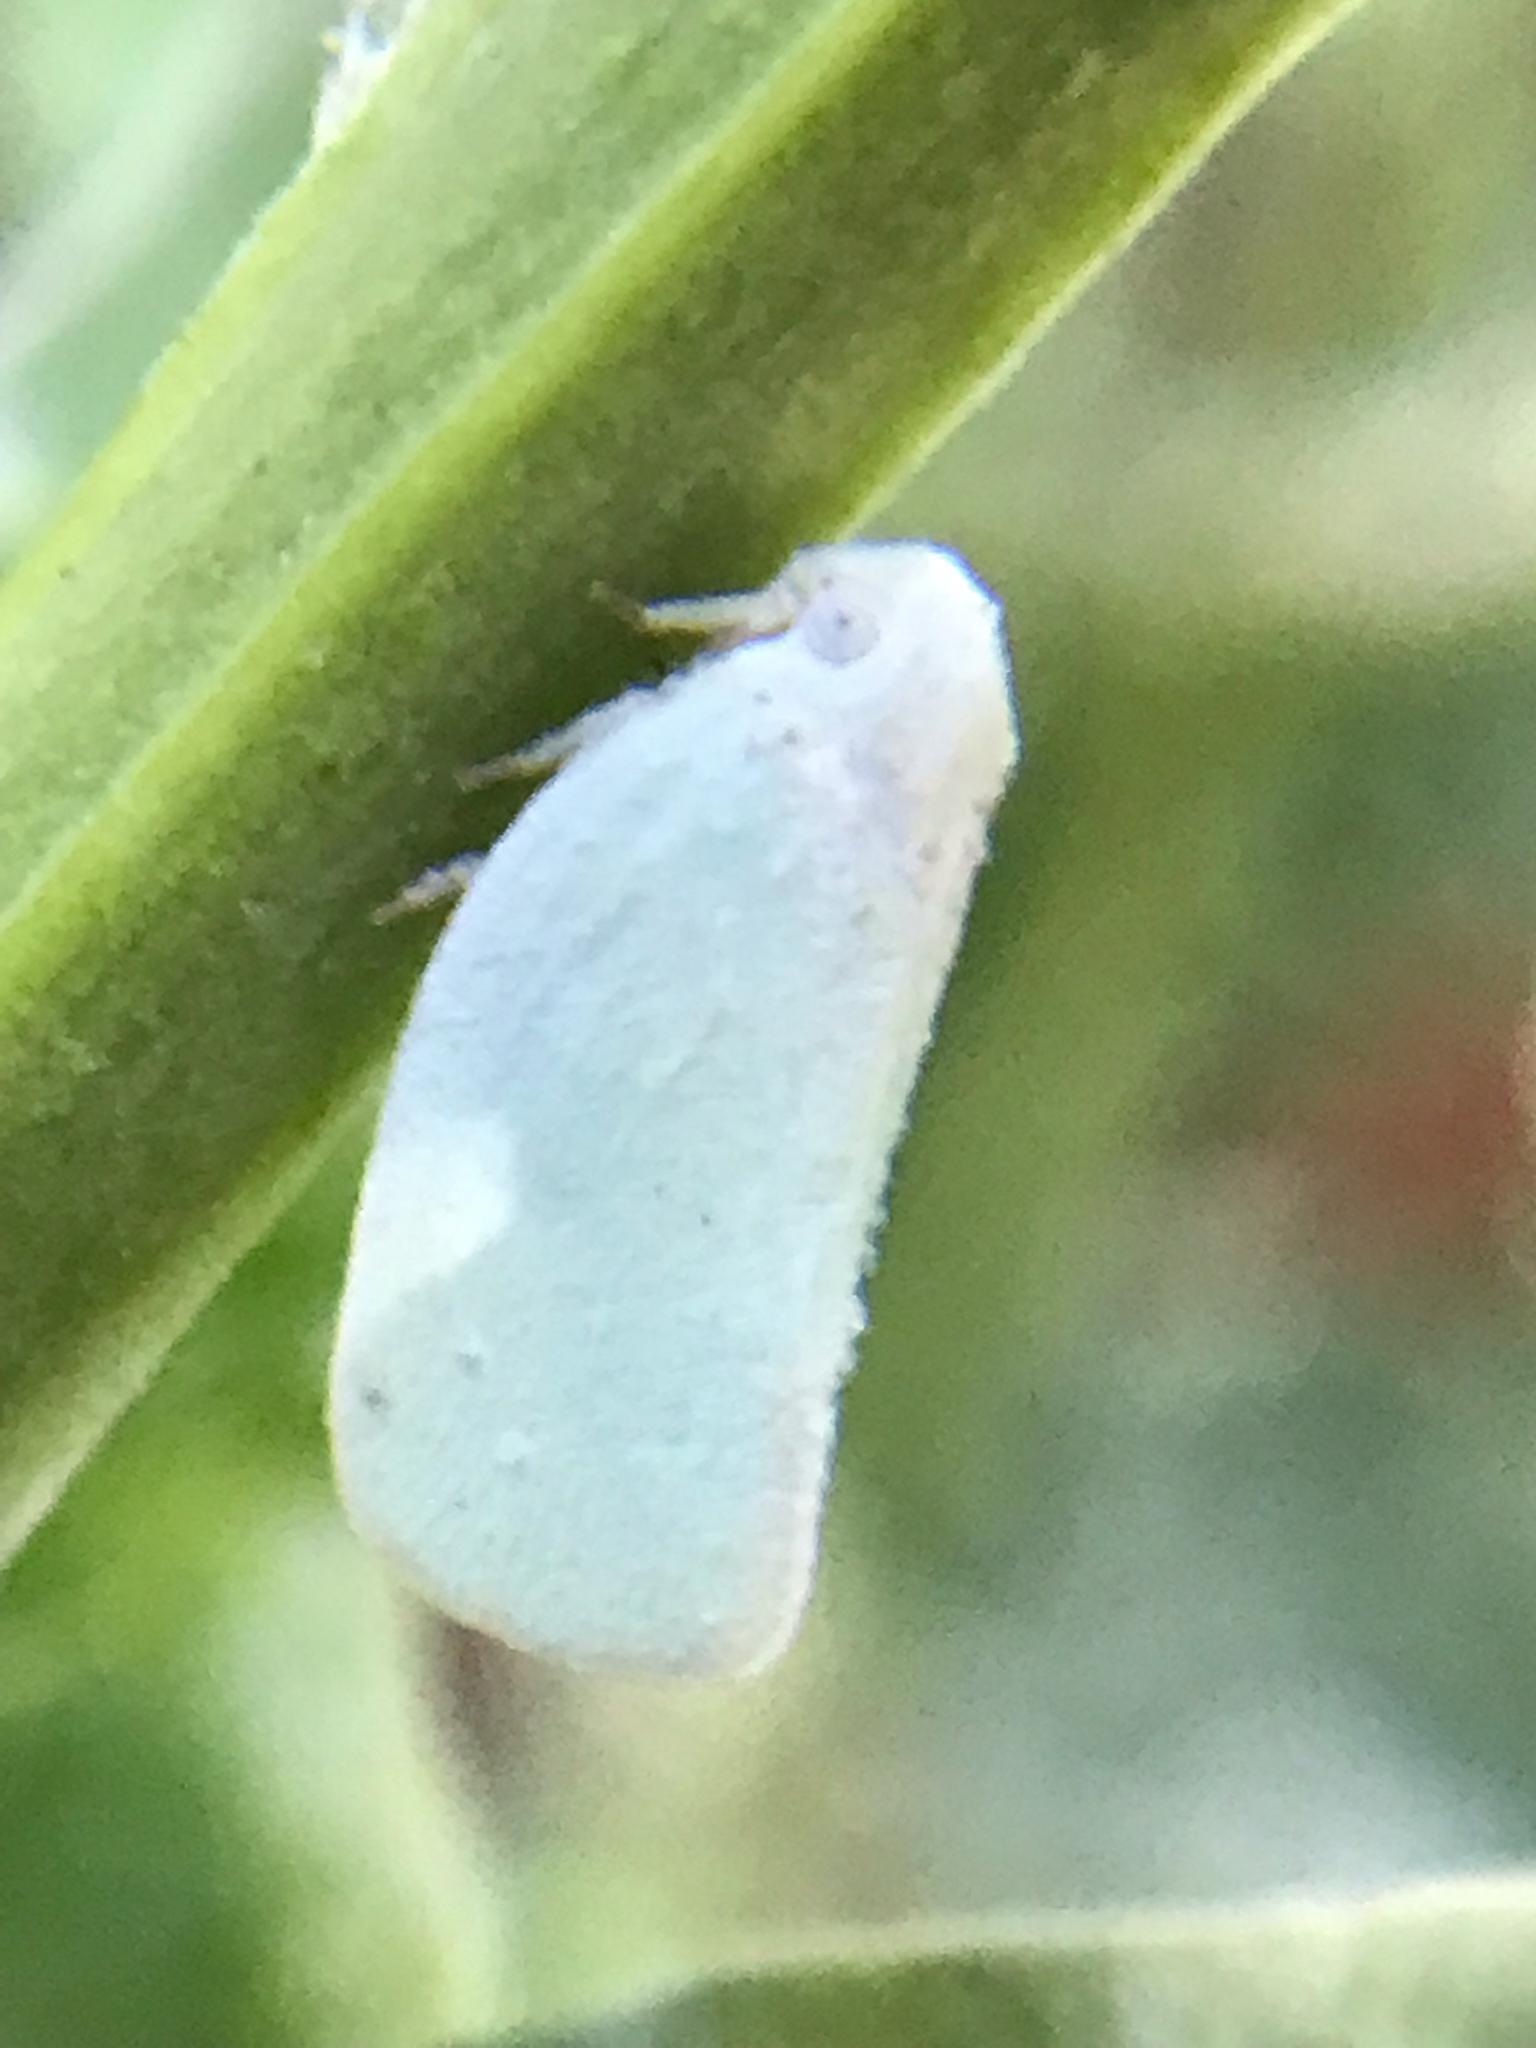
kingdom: Animalia
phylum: Arthropoda
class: Insecta
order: Hemiptera
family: Flatidae
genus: Flatormenis
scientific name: Flatormenis proxima
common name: Northern flatid planthopper
